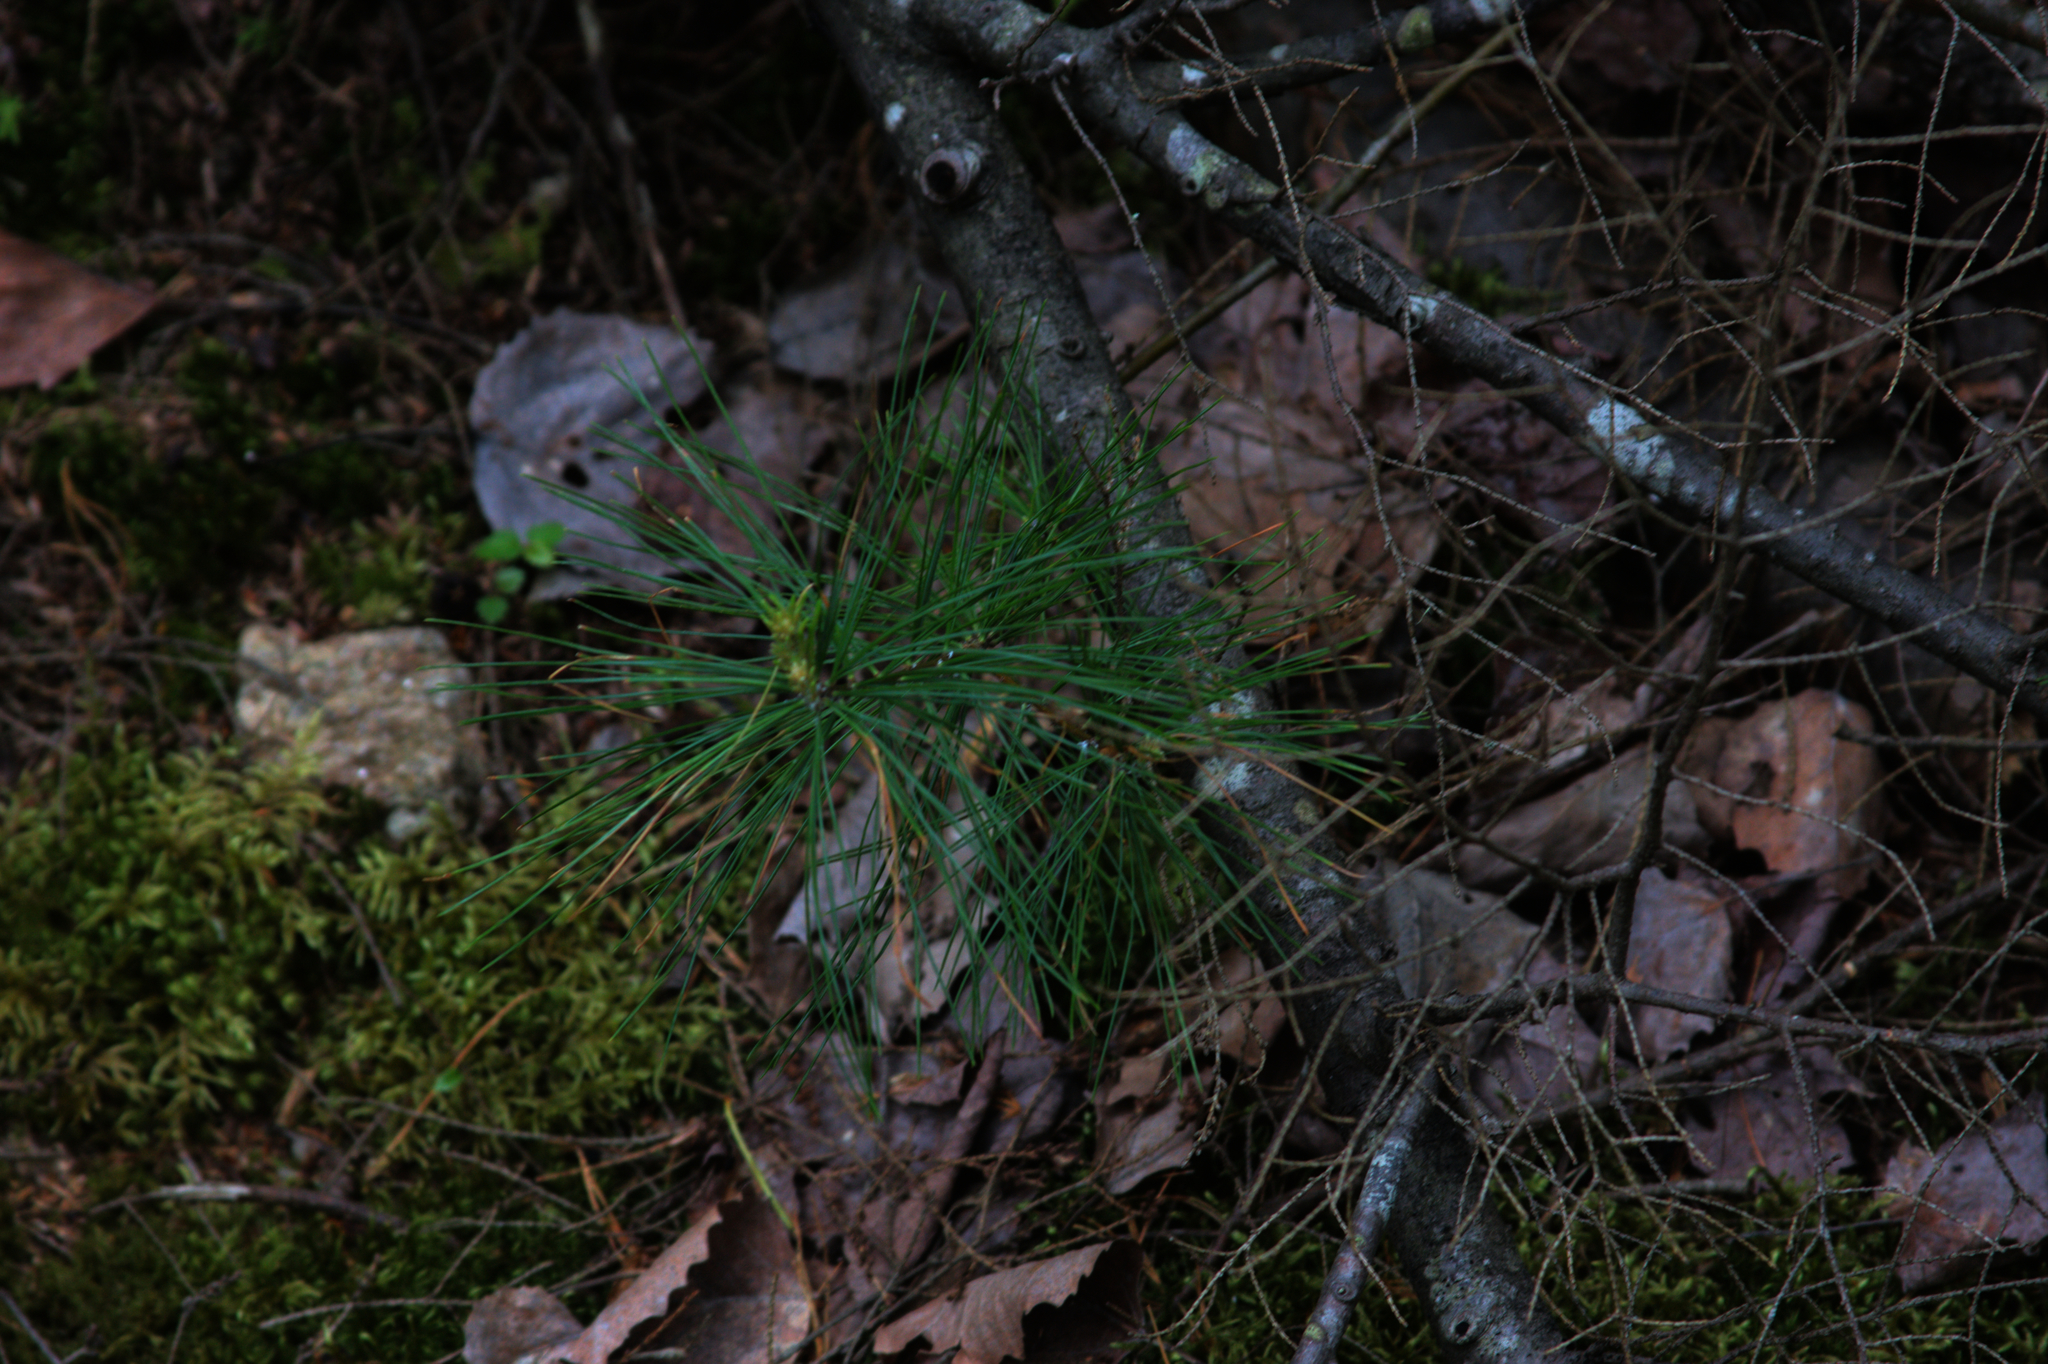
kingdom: Plantae
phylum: Tracheophyta
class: Pinopsida
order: Pinales
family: Pinaceae
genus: Pinus
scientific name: Pinus strobus
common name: Weymouth pine
